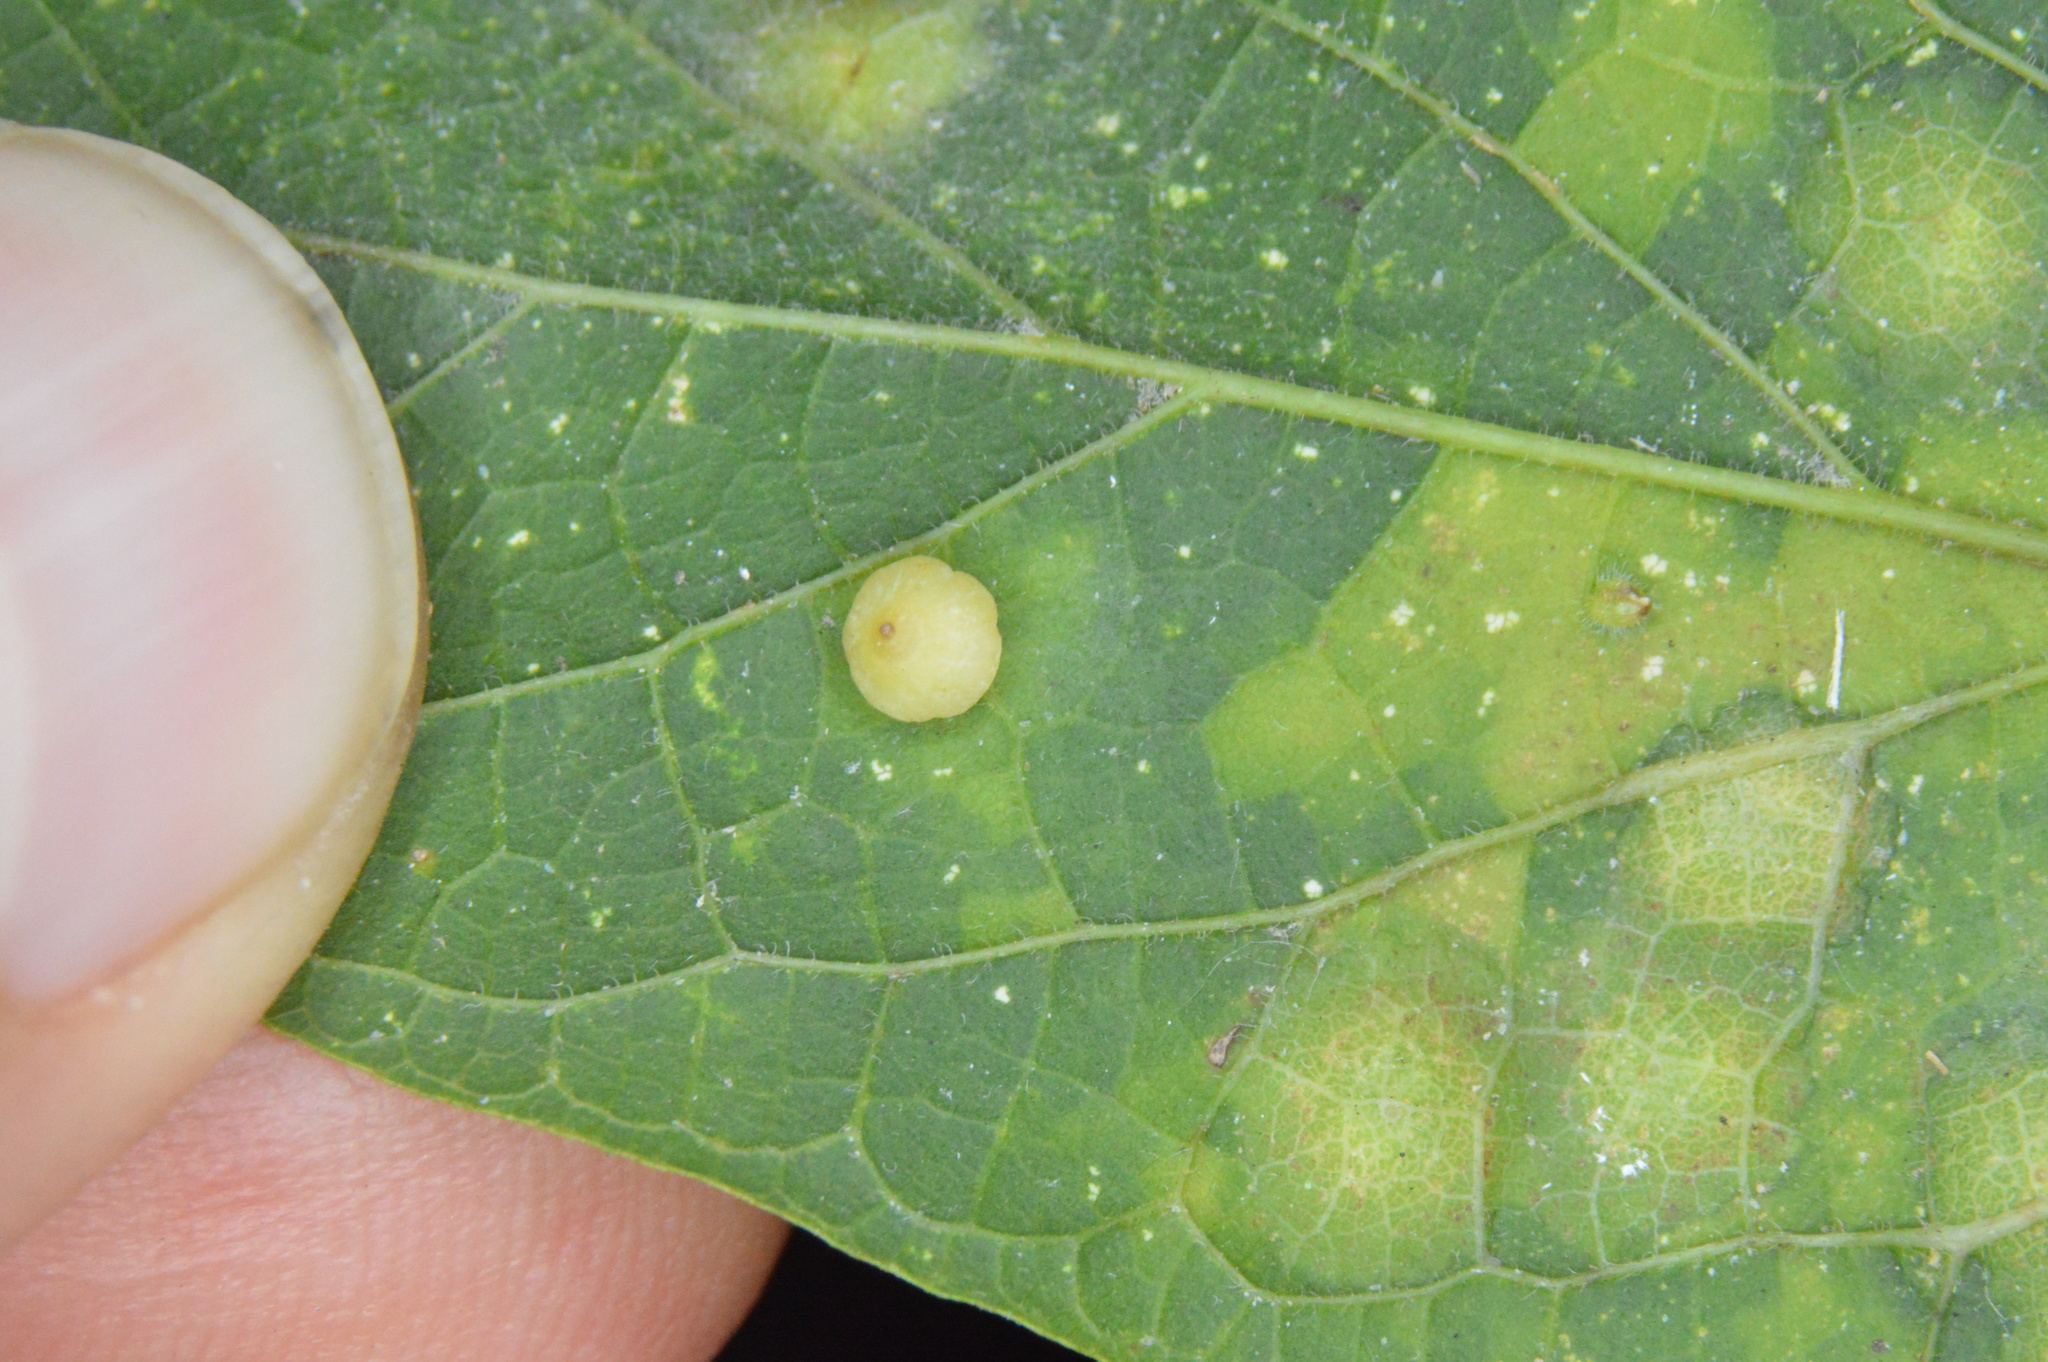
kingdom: Animalia
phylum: Arthropoda
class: Insecta
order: Diptera
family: Cecidomyiidae
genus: Celticecis
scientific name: Celticecis globosa
